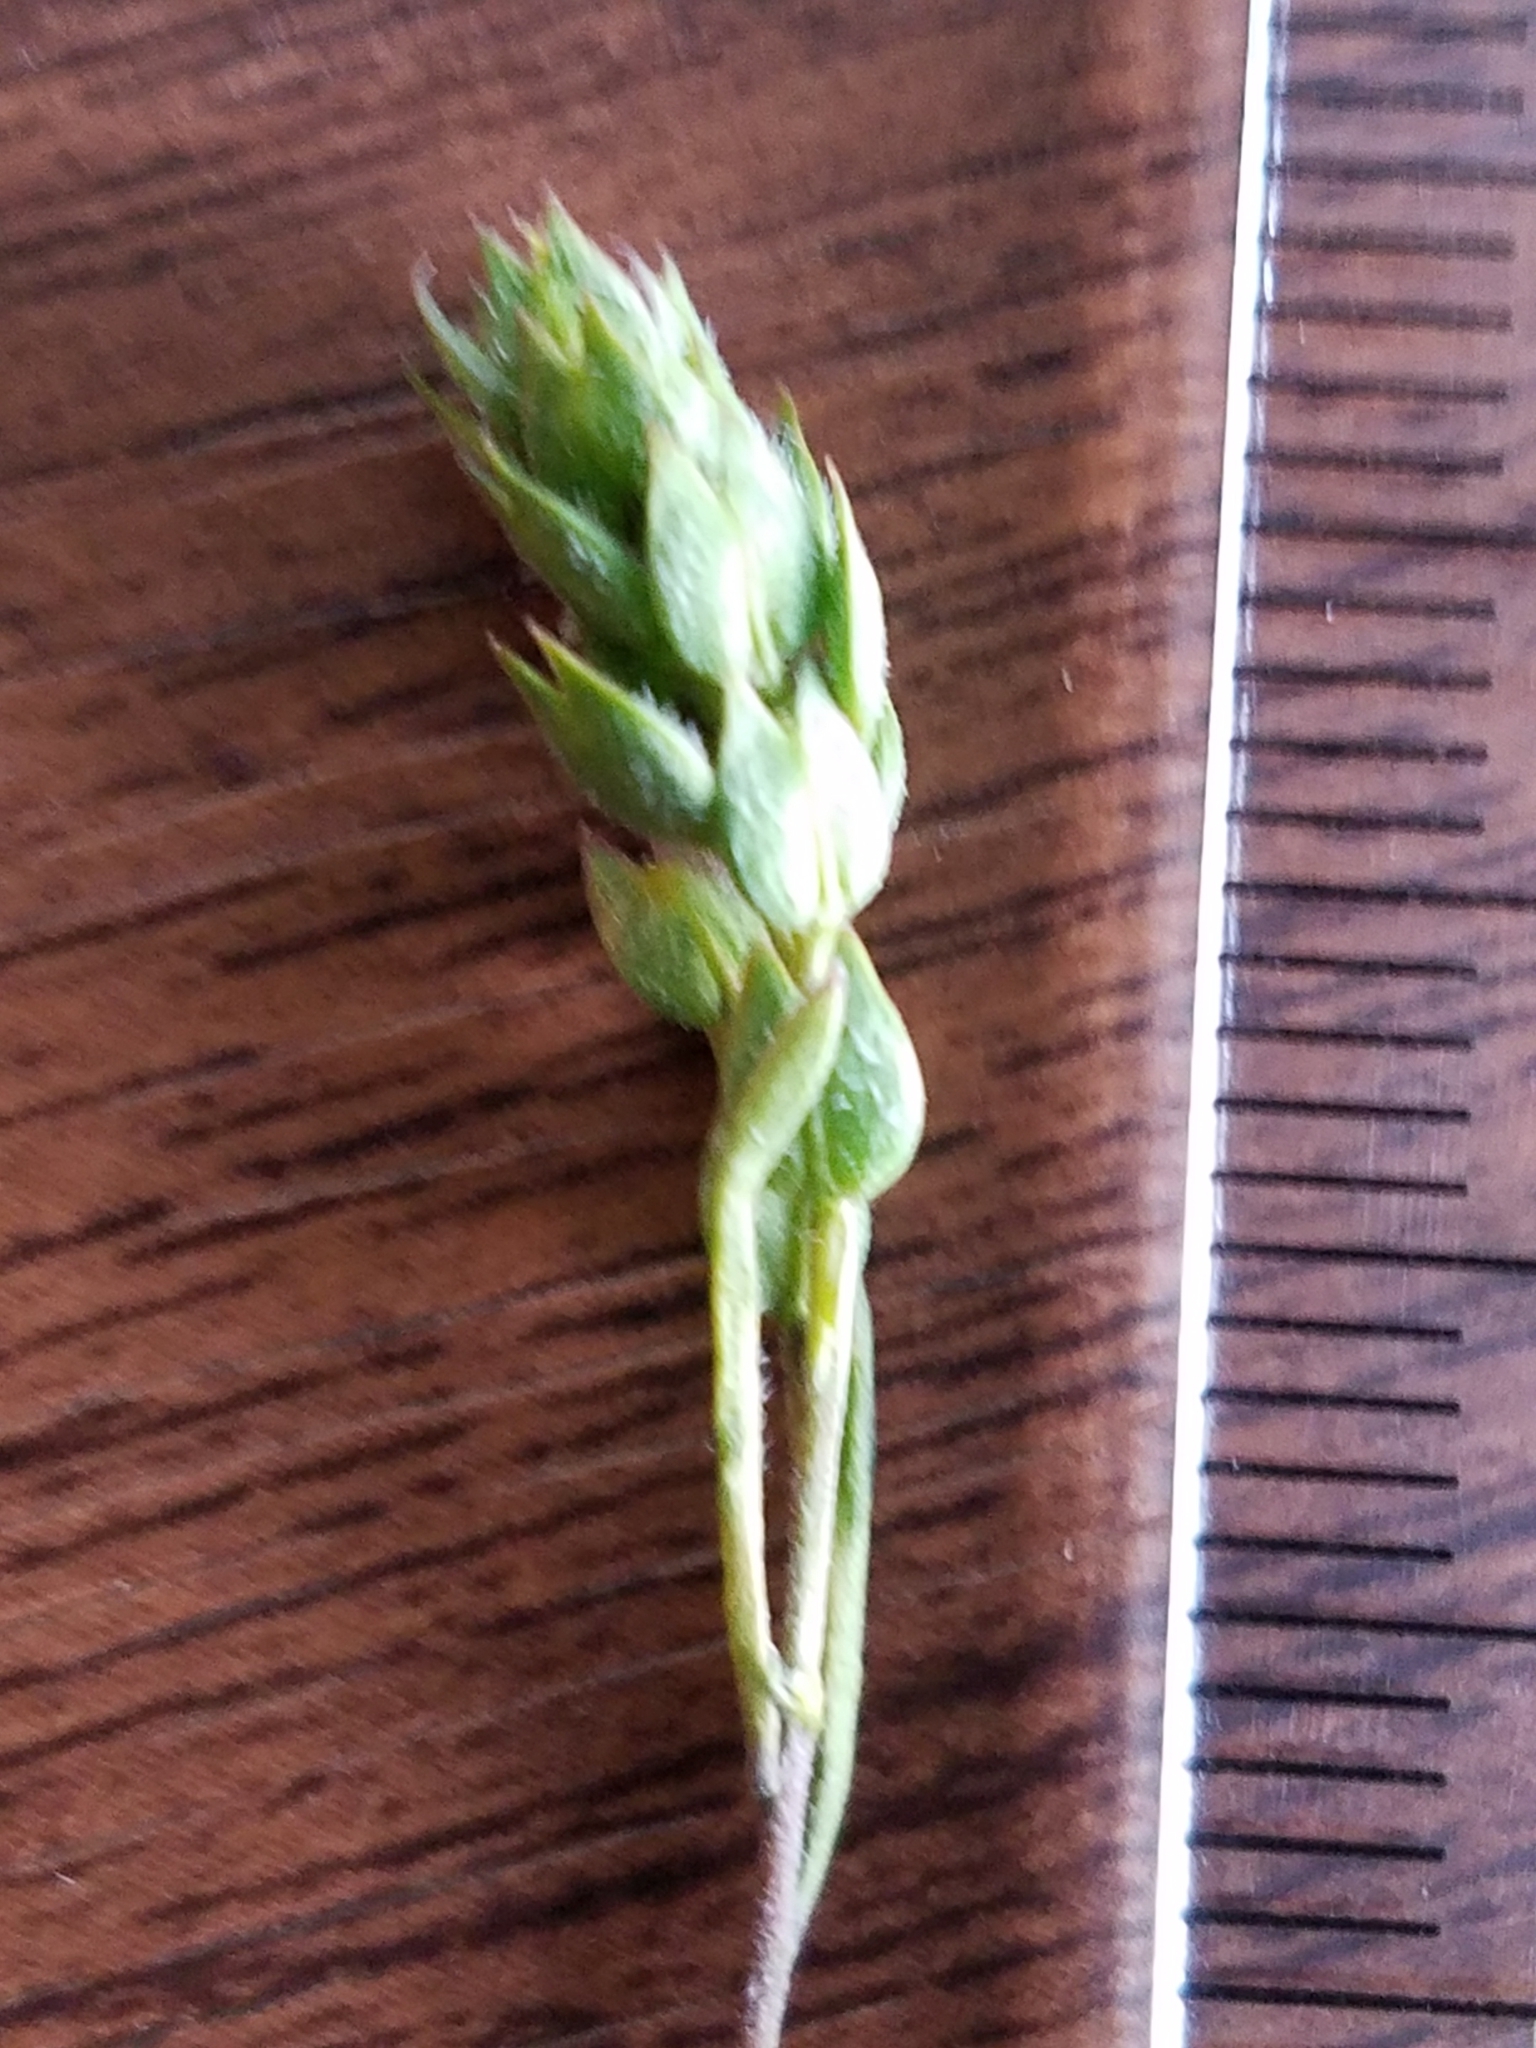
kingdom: Plantae
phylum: Tracheophyta
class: Magnoliopsida
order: Brassicales
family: Brassicaceae
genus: Lepidium
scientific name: Lepidium acutidens
